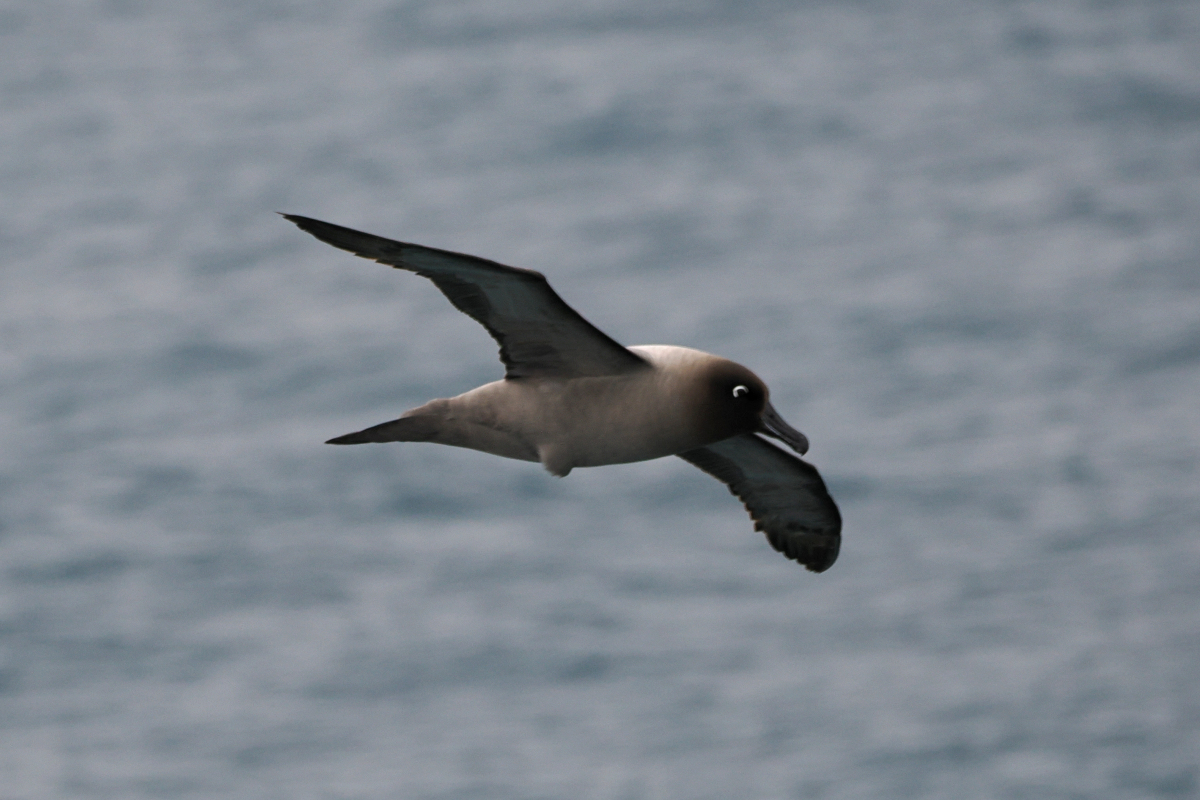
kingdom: Animalia
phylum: Chordata
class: Aves
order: Procellariiformes
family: Diomedeidae
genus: Phoebetria
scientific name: Phoebetria palpebrata
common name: Light-mantled albatross
